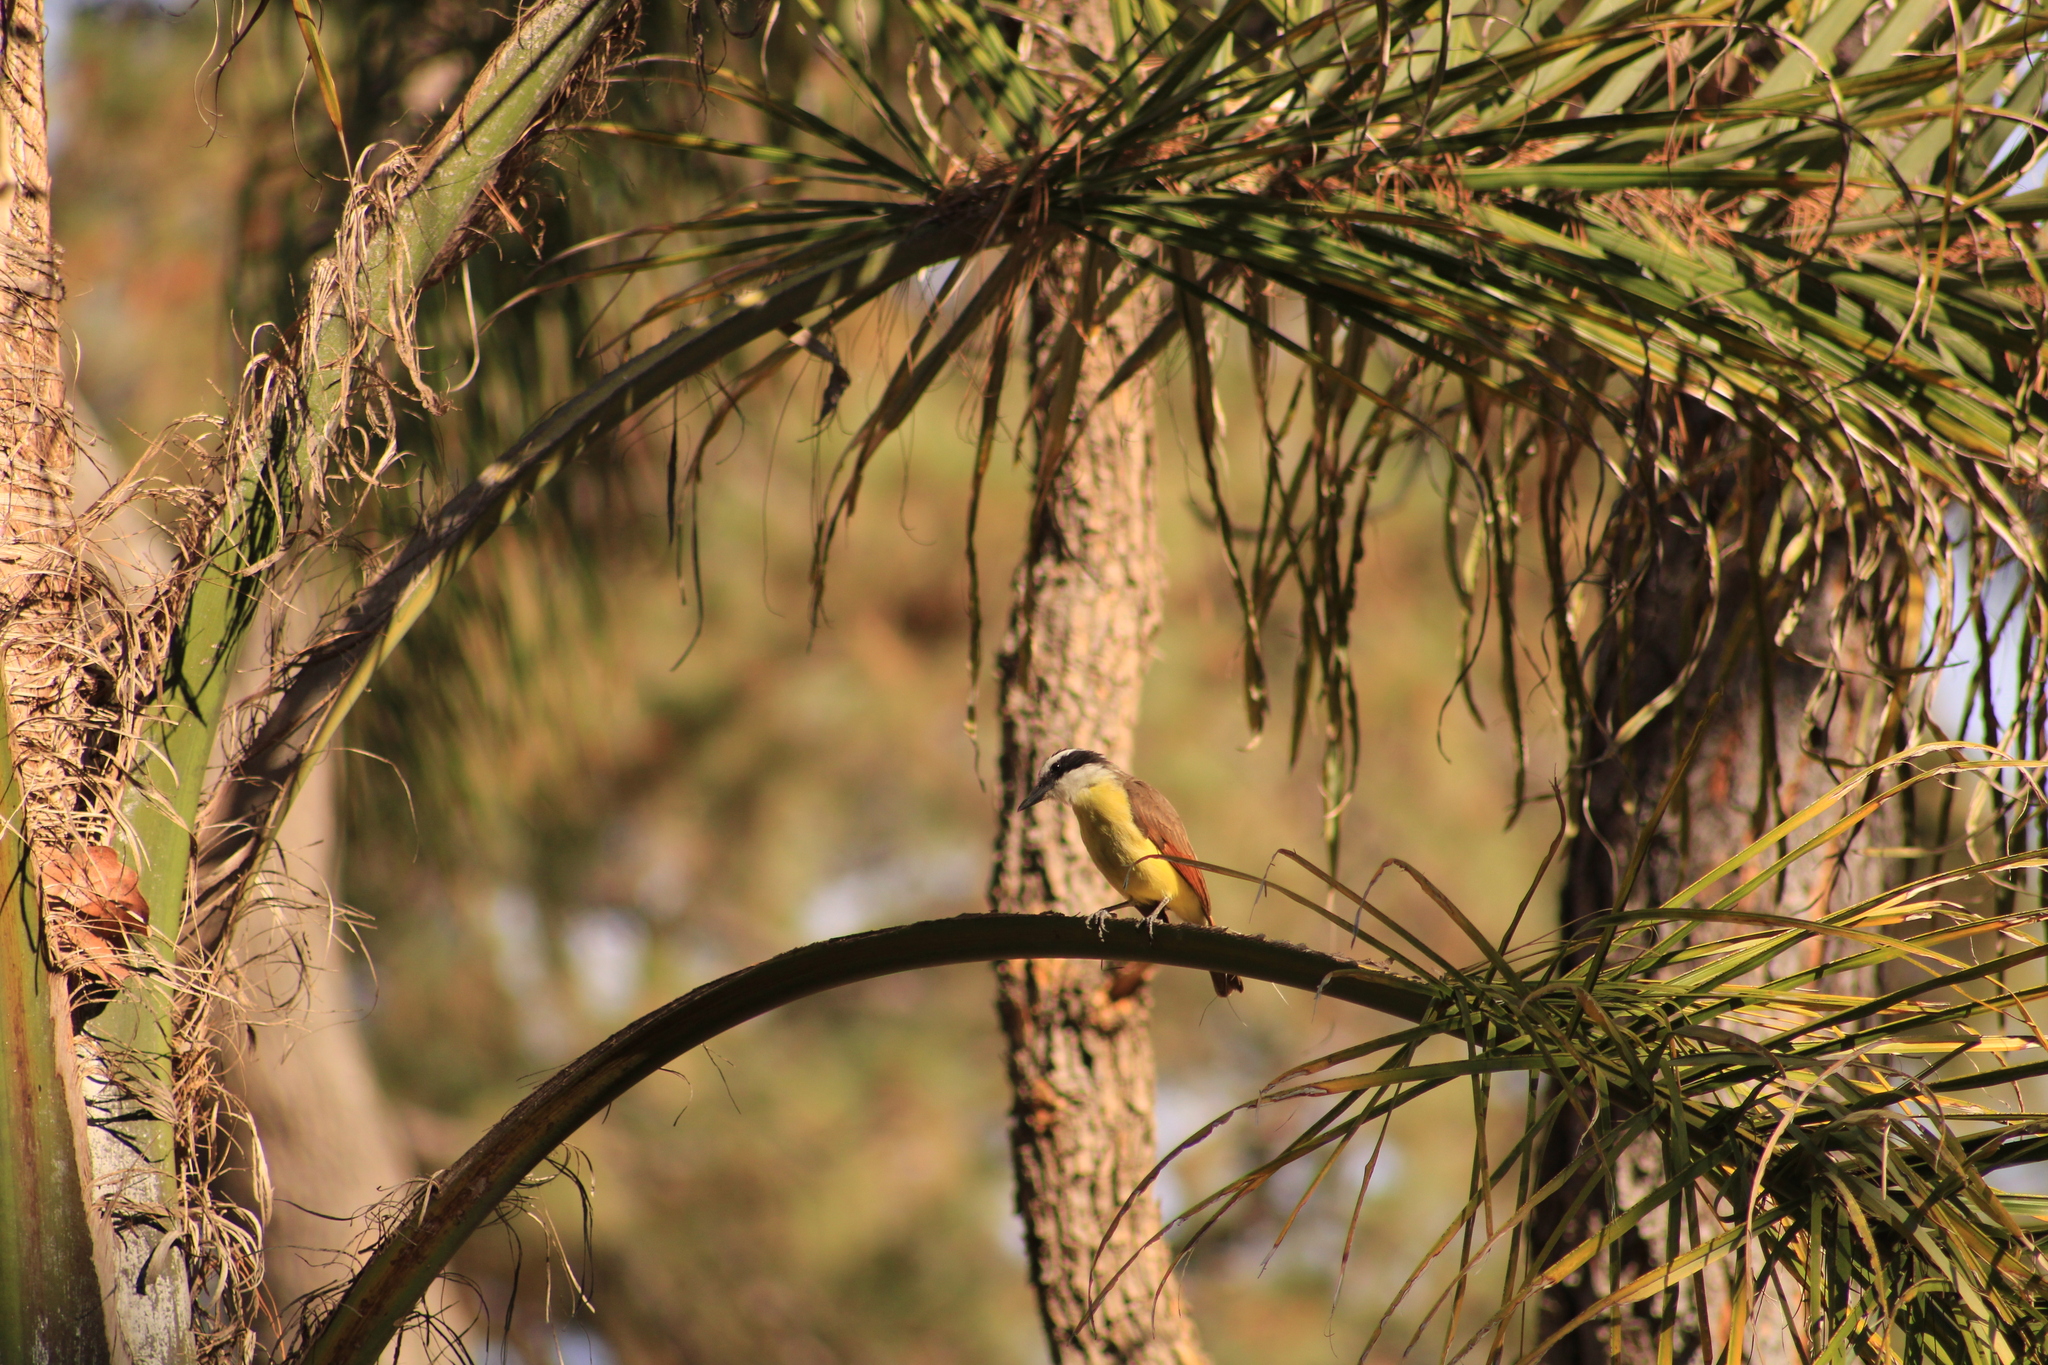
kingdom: Animalia
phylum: Chordata
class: Aves
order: Passeriformes
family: Tyrannidae
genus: Pitangus
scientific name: Pitangus sulphuratus
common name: Great kiskadee
